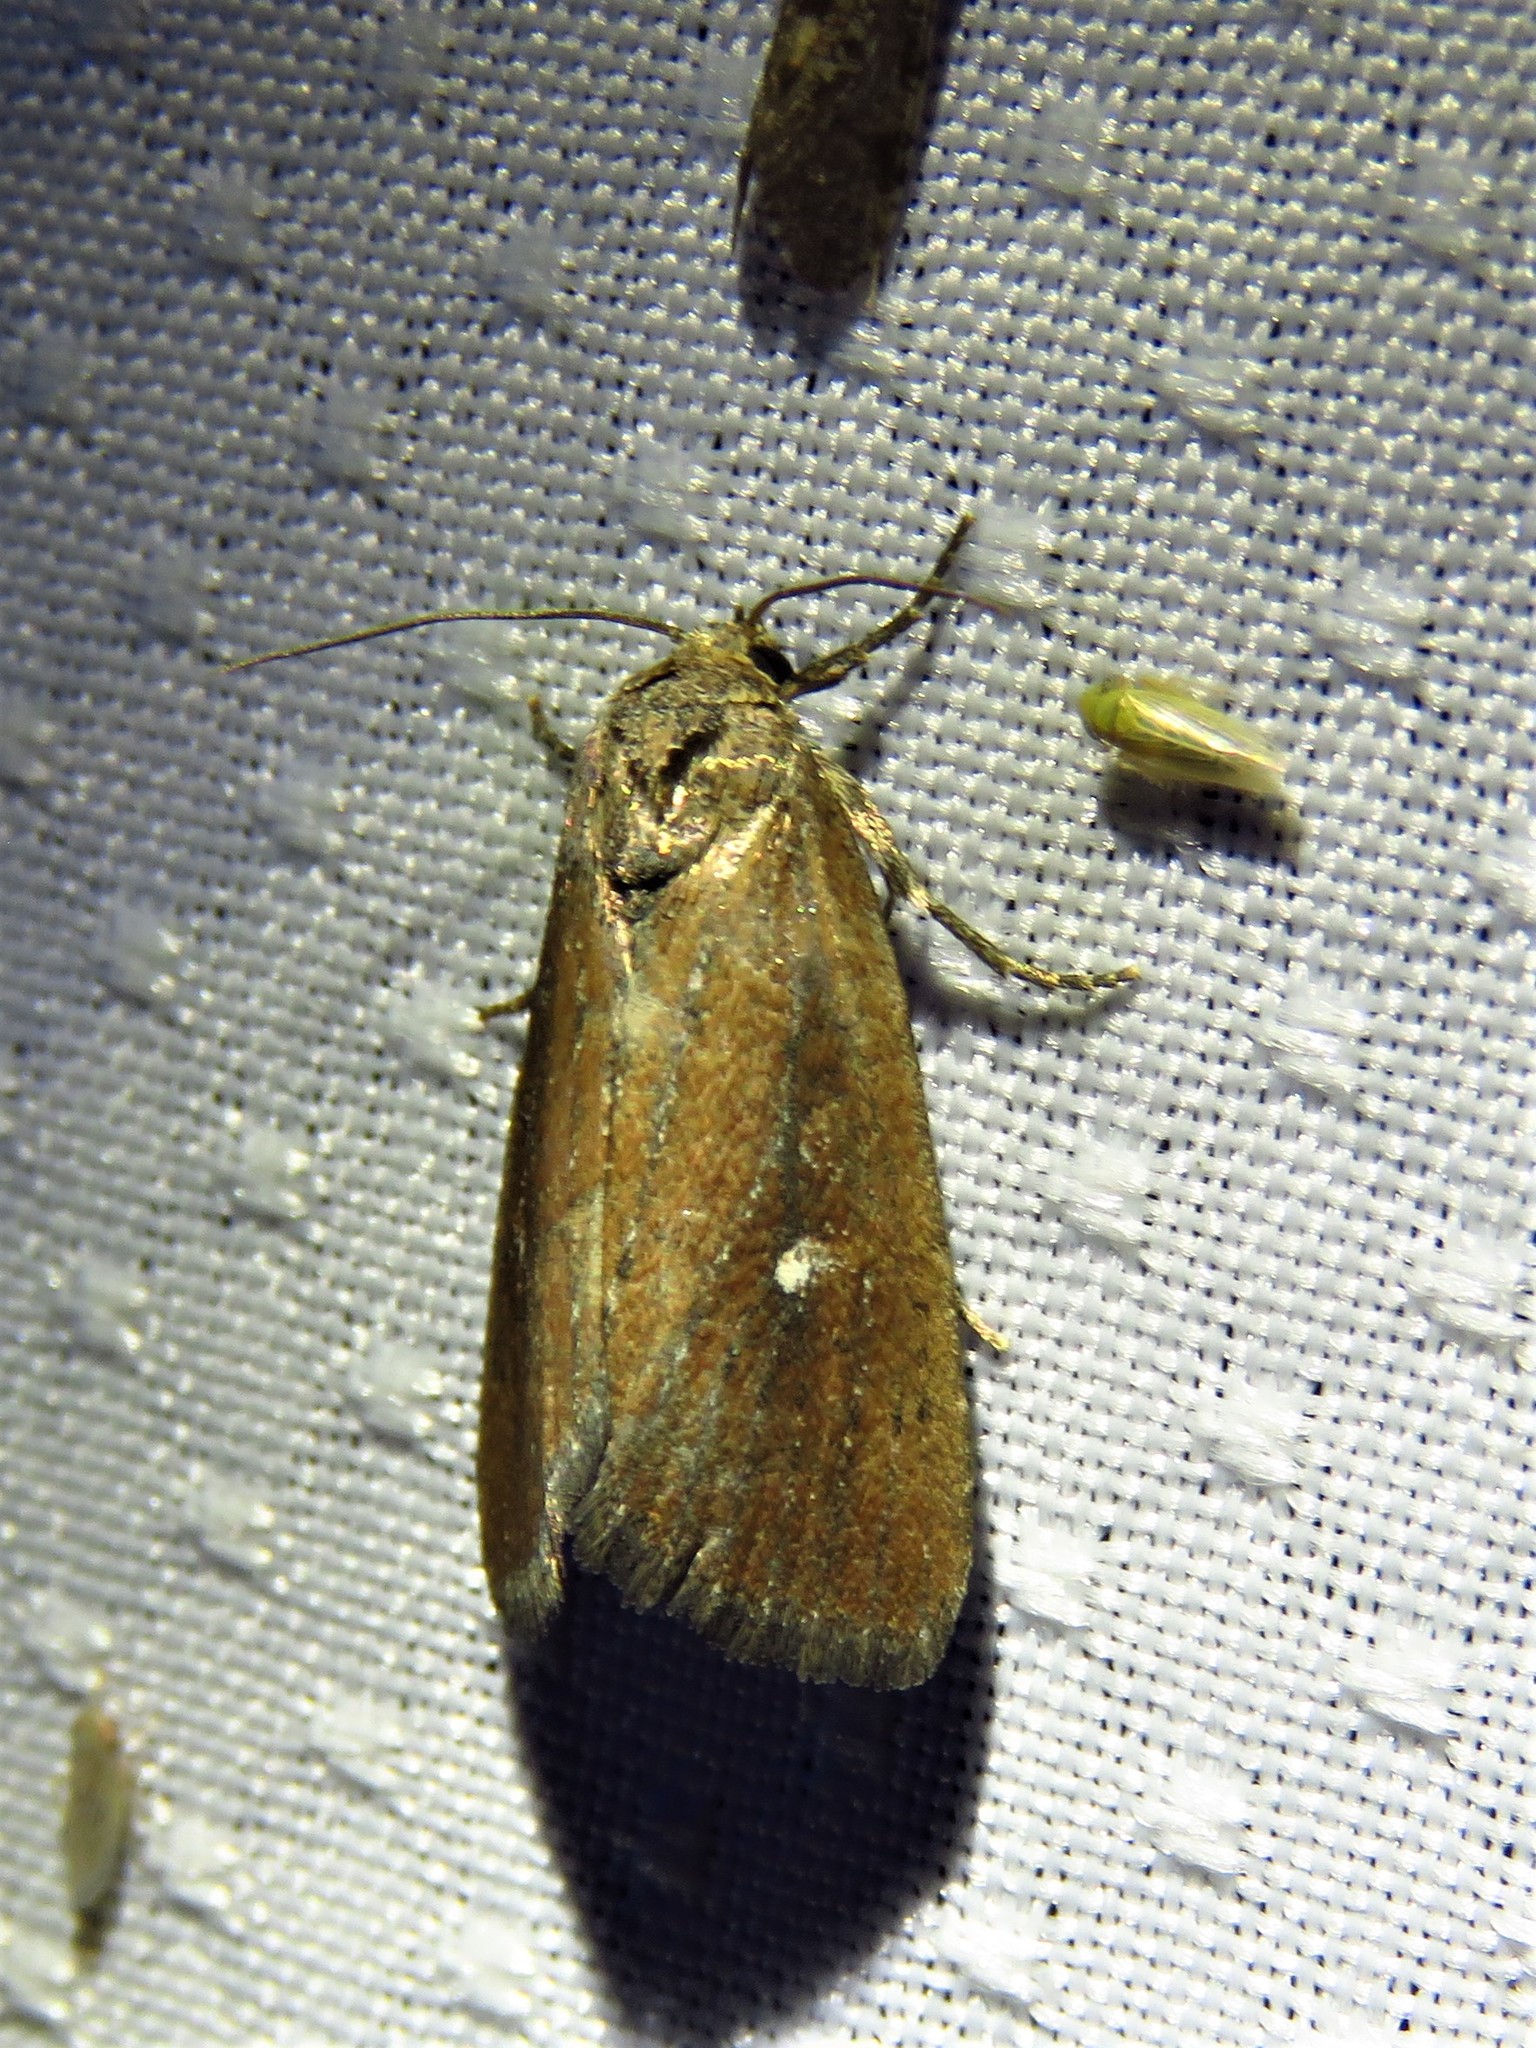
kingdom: Animalia
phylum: Arthropoda
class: Insecta
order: Lepidoptera
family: Noctuidae
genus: Condica
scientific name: Condica videns
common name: White-dotted groundling
